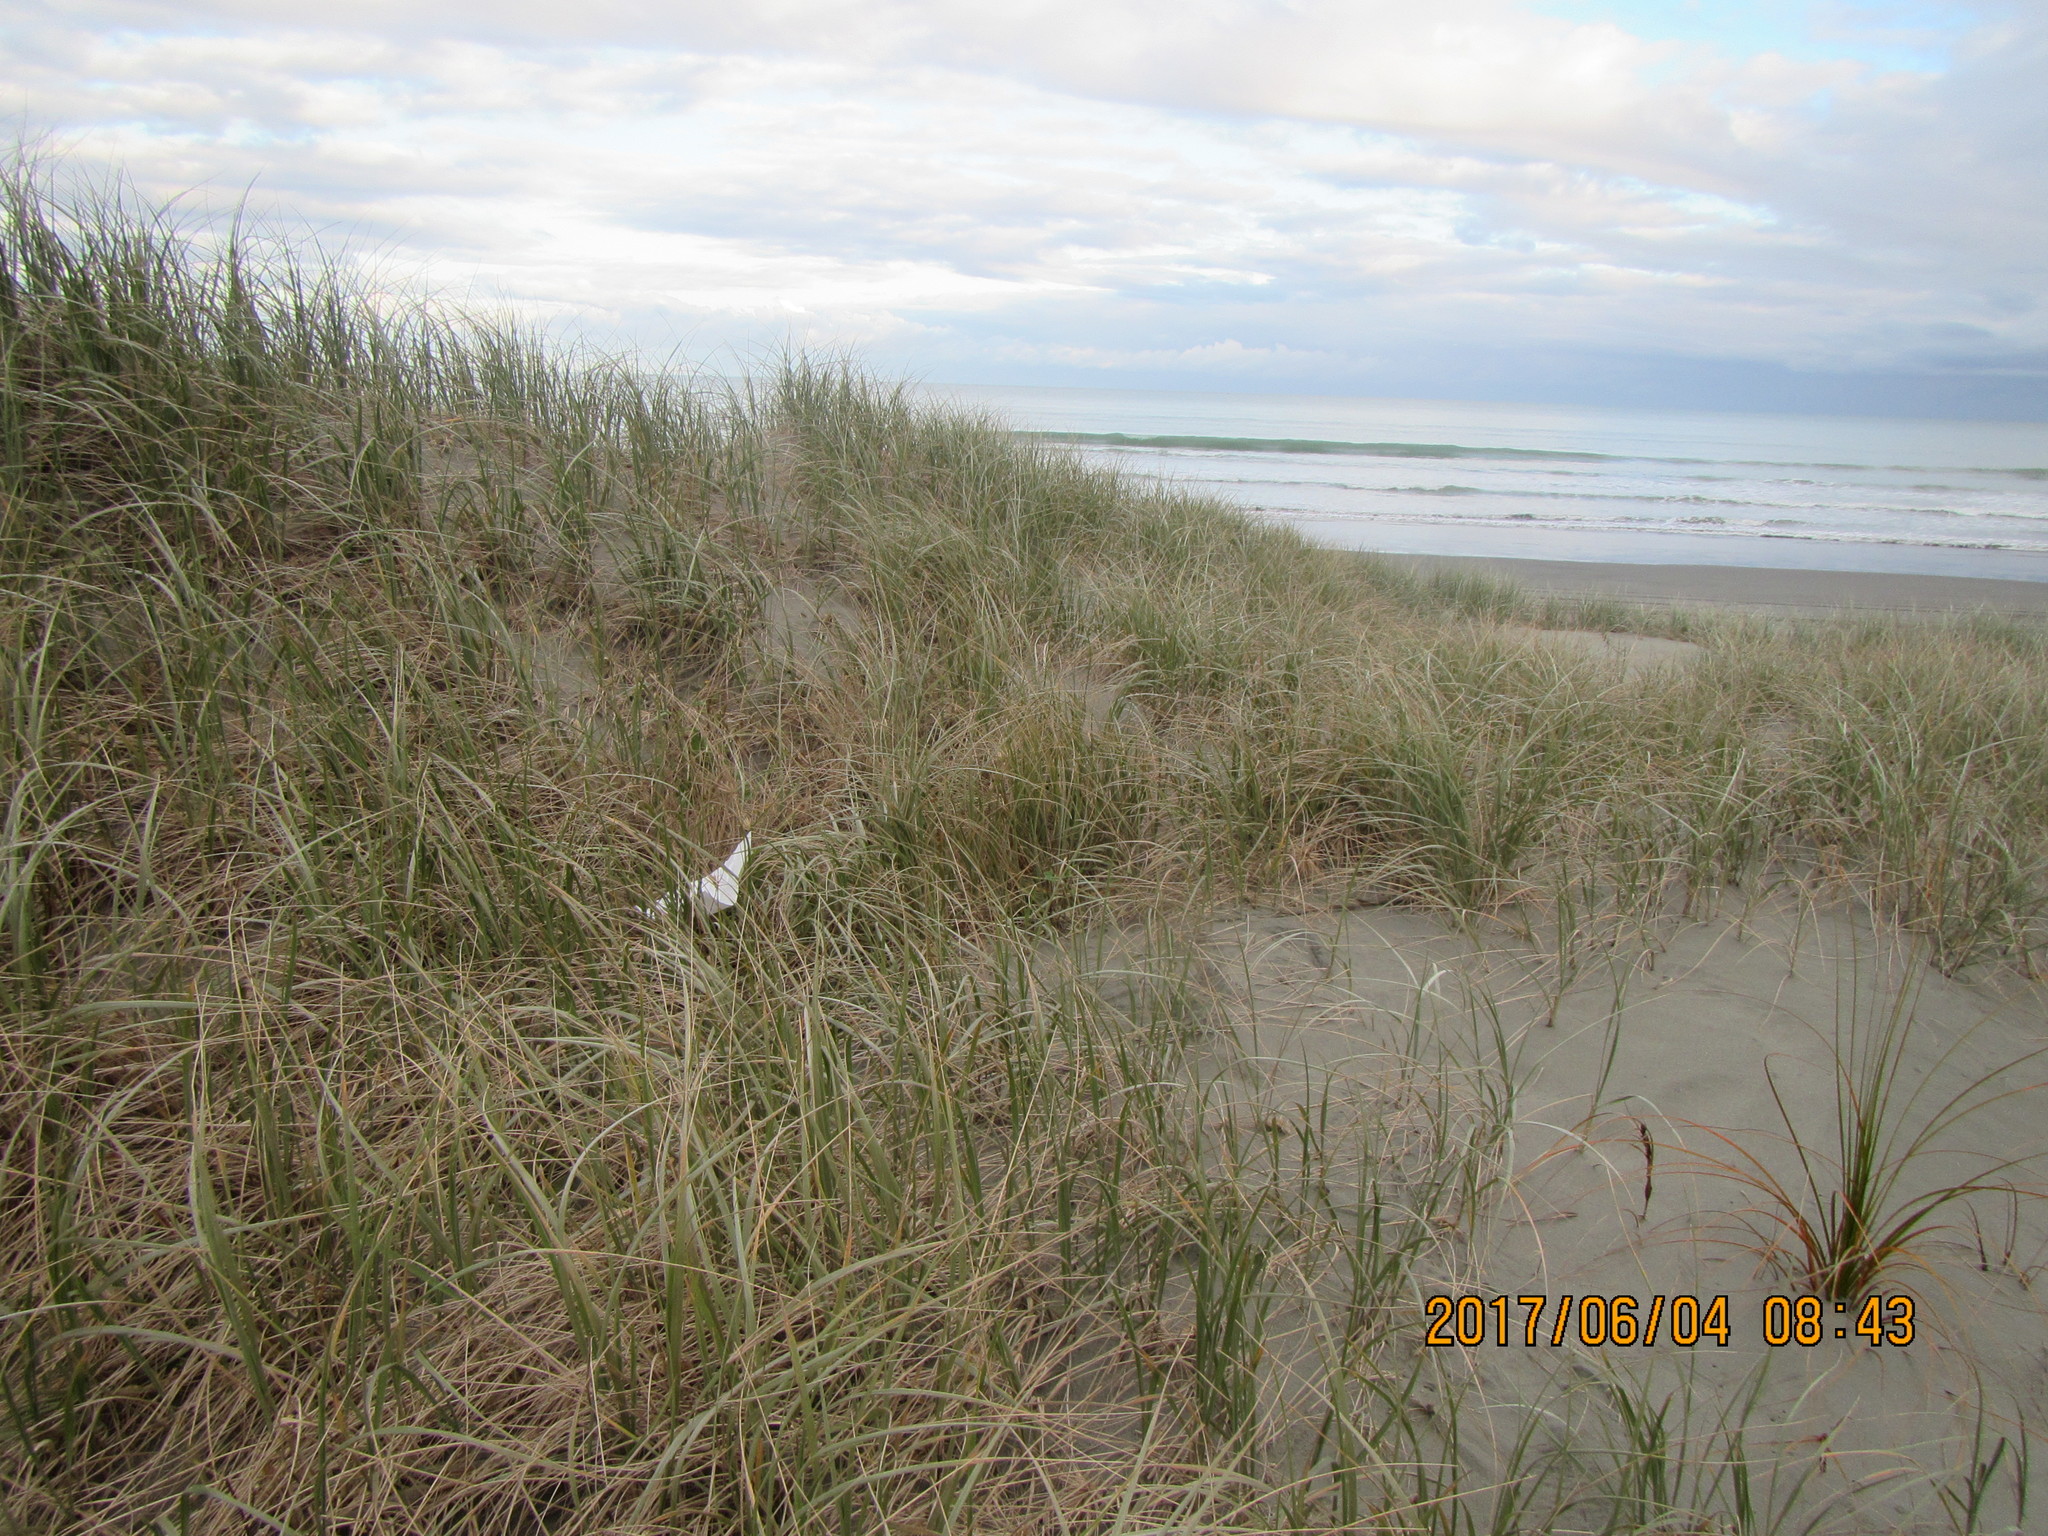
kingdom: Animalia
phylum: Arthropoda
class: Arachnida
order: Araneae
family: Mimetidae
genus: Australomimetus
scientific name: Australomimetus hartleyensis
